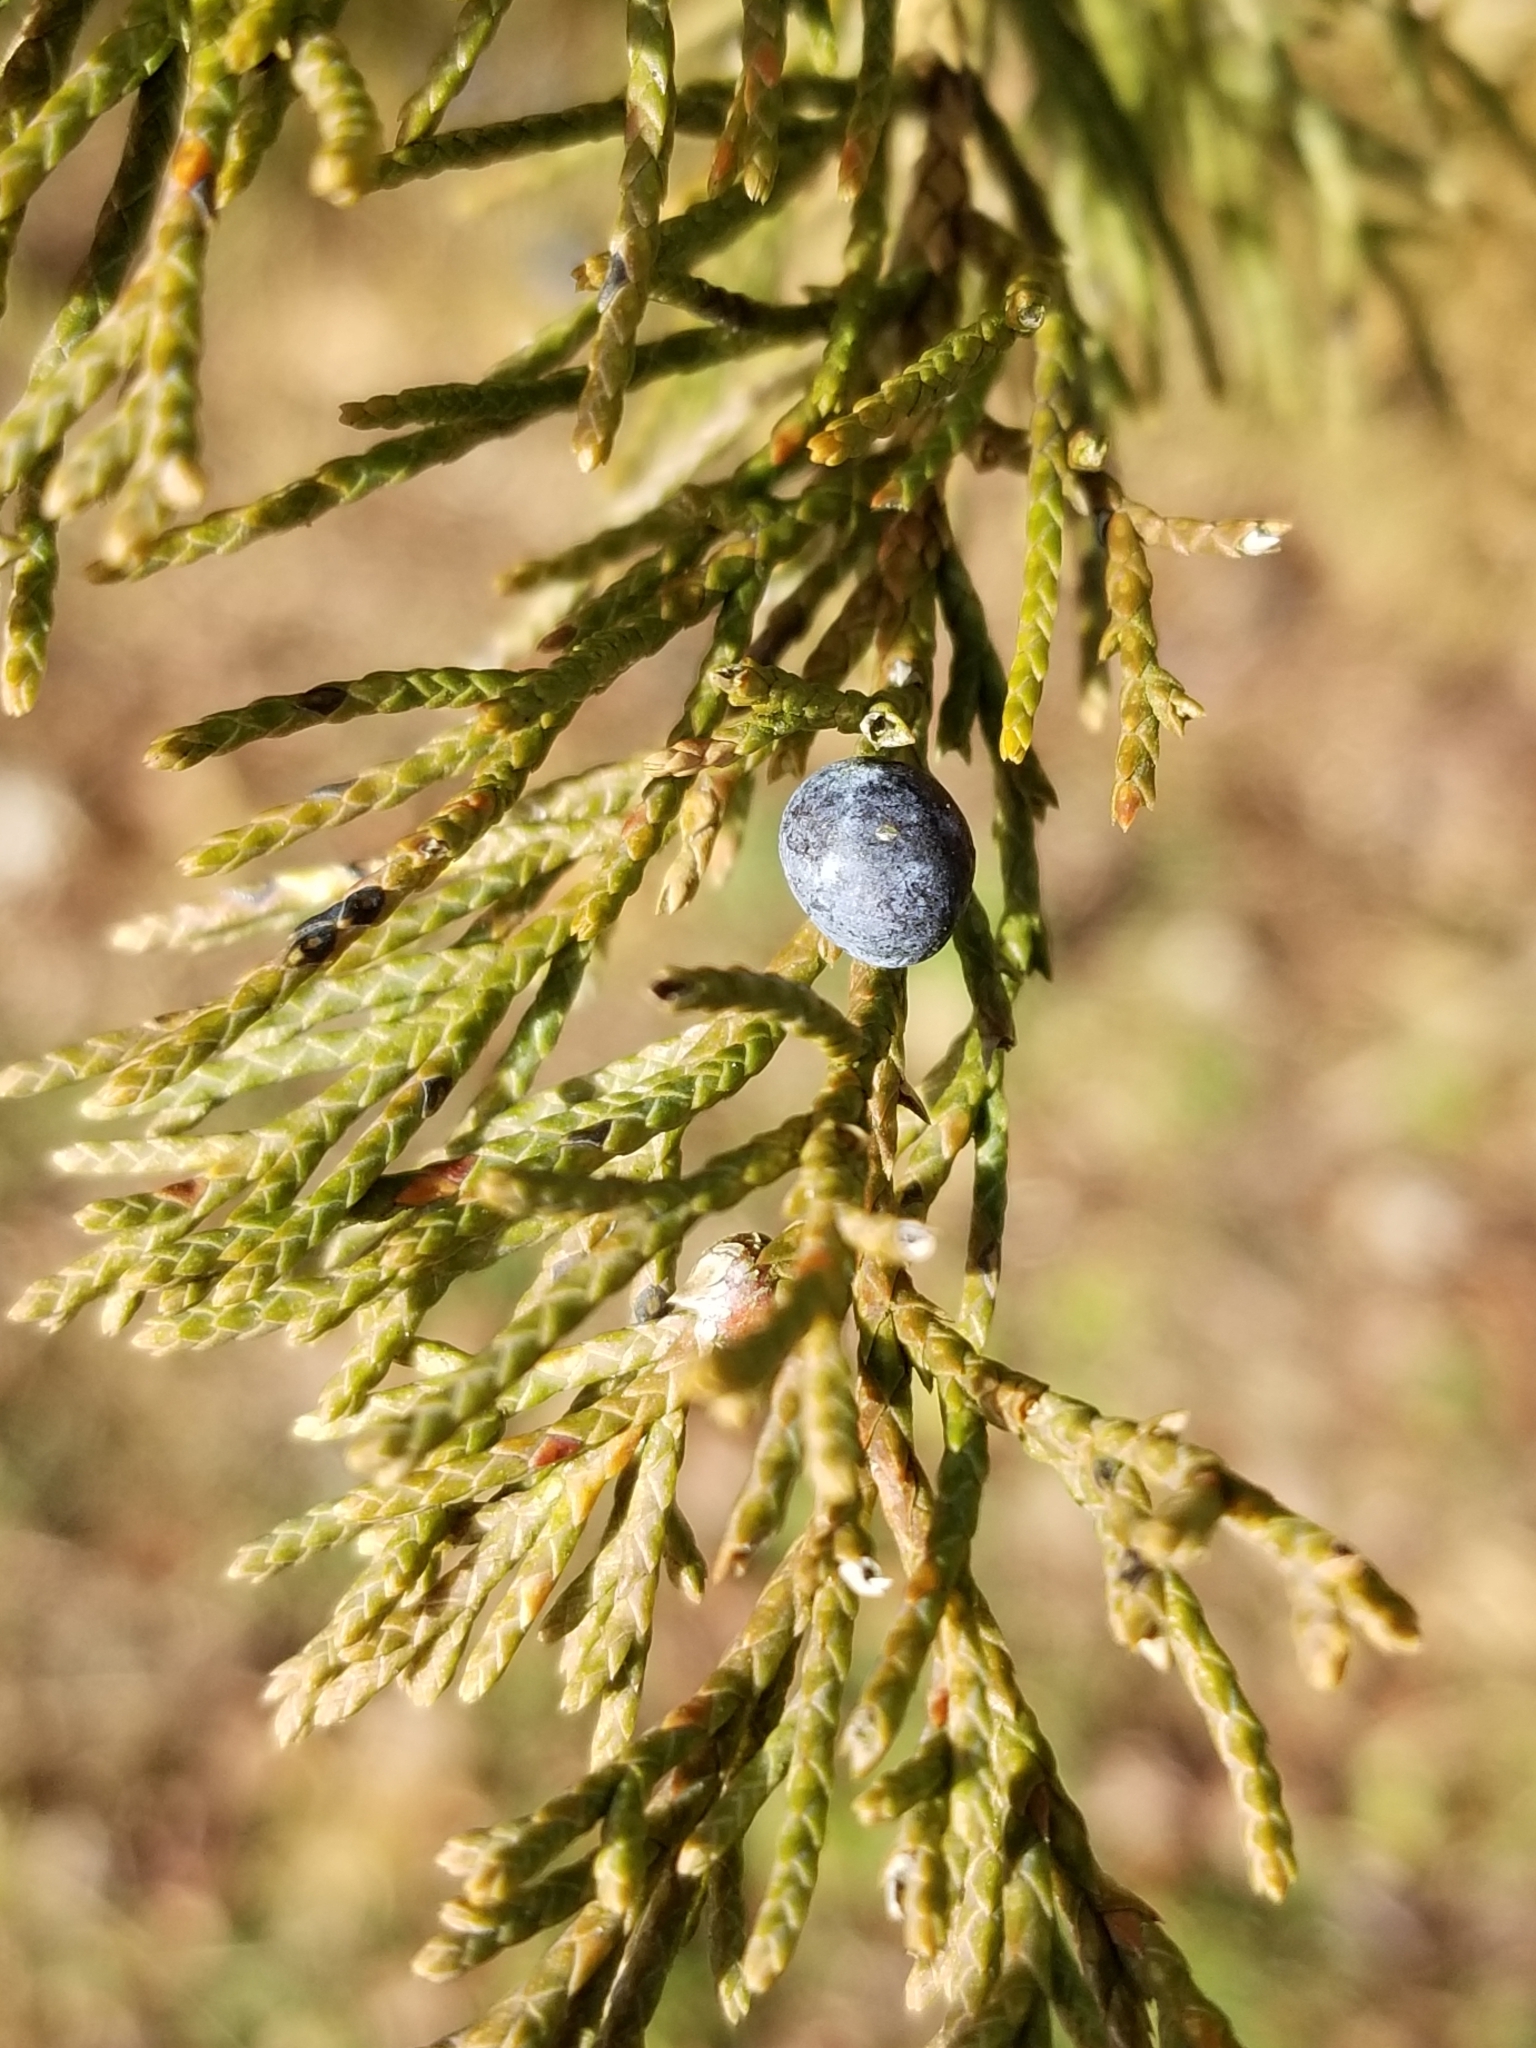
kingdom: Plantae
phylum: Tracheophyta
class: Pinopsida
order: Pinales
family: Cupressaceae
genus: Juniperus
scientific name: Juniperus virginiana
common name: Red juniper
